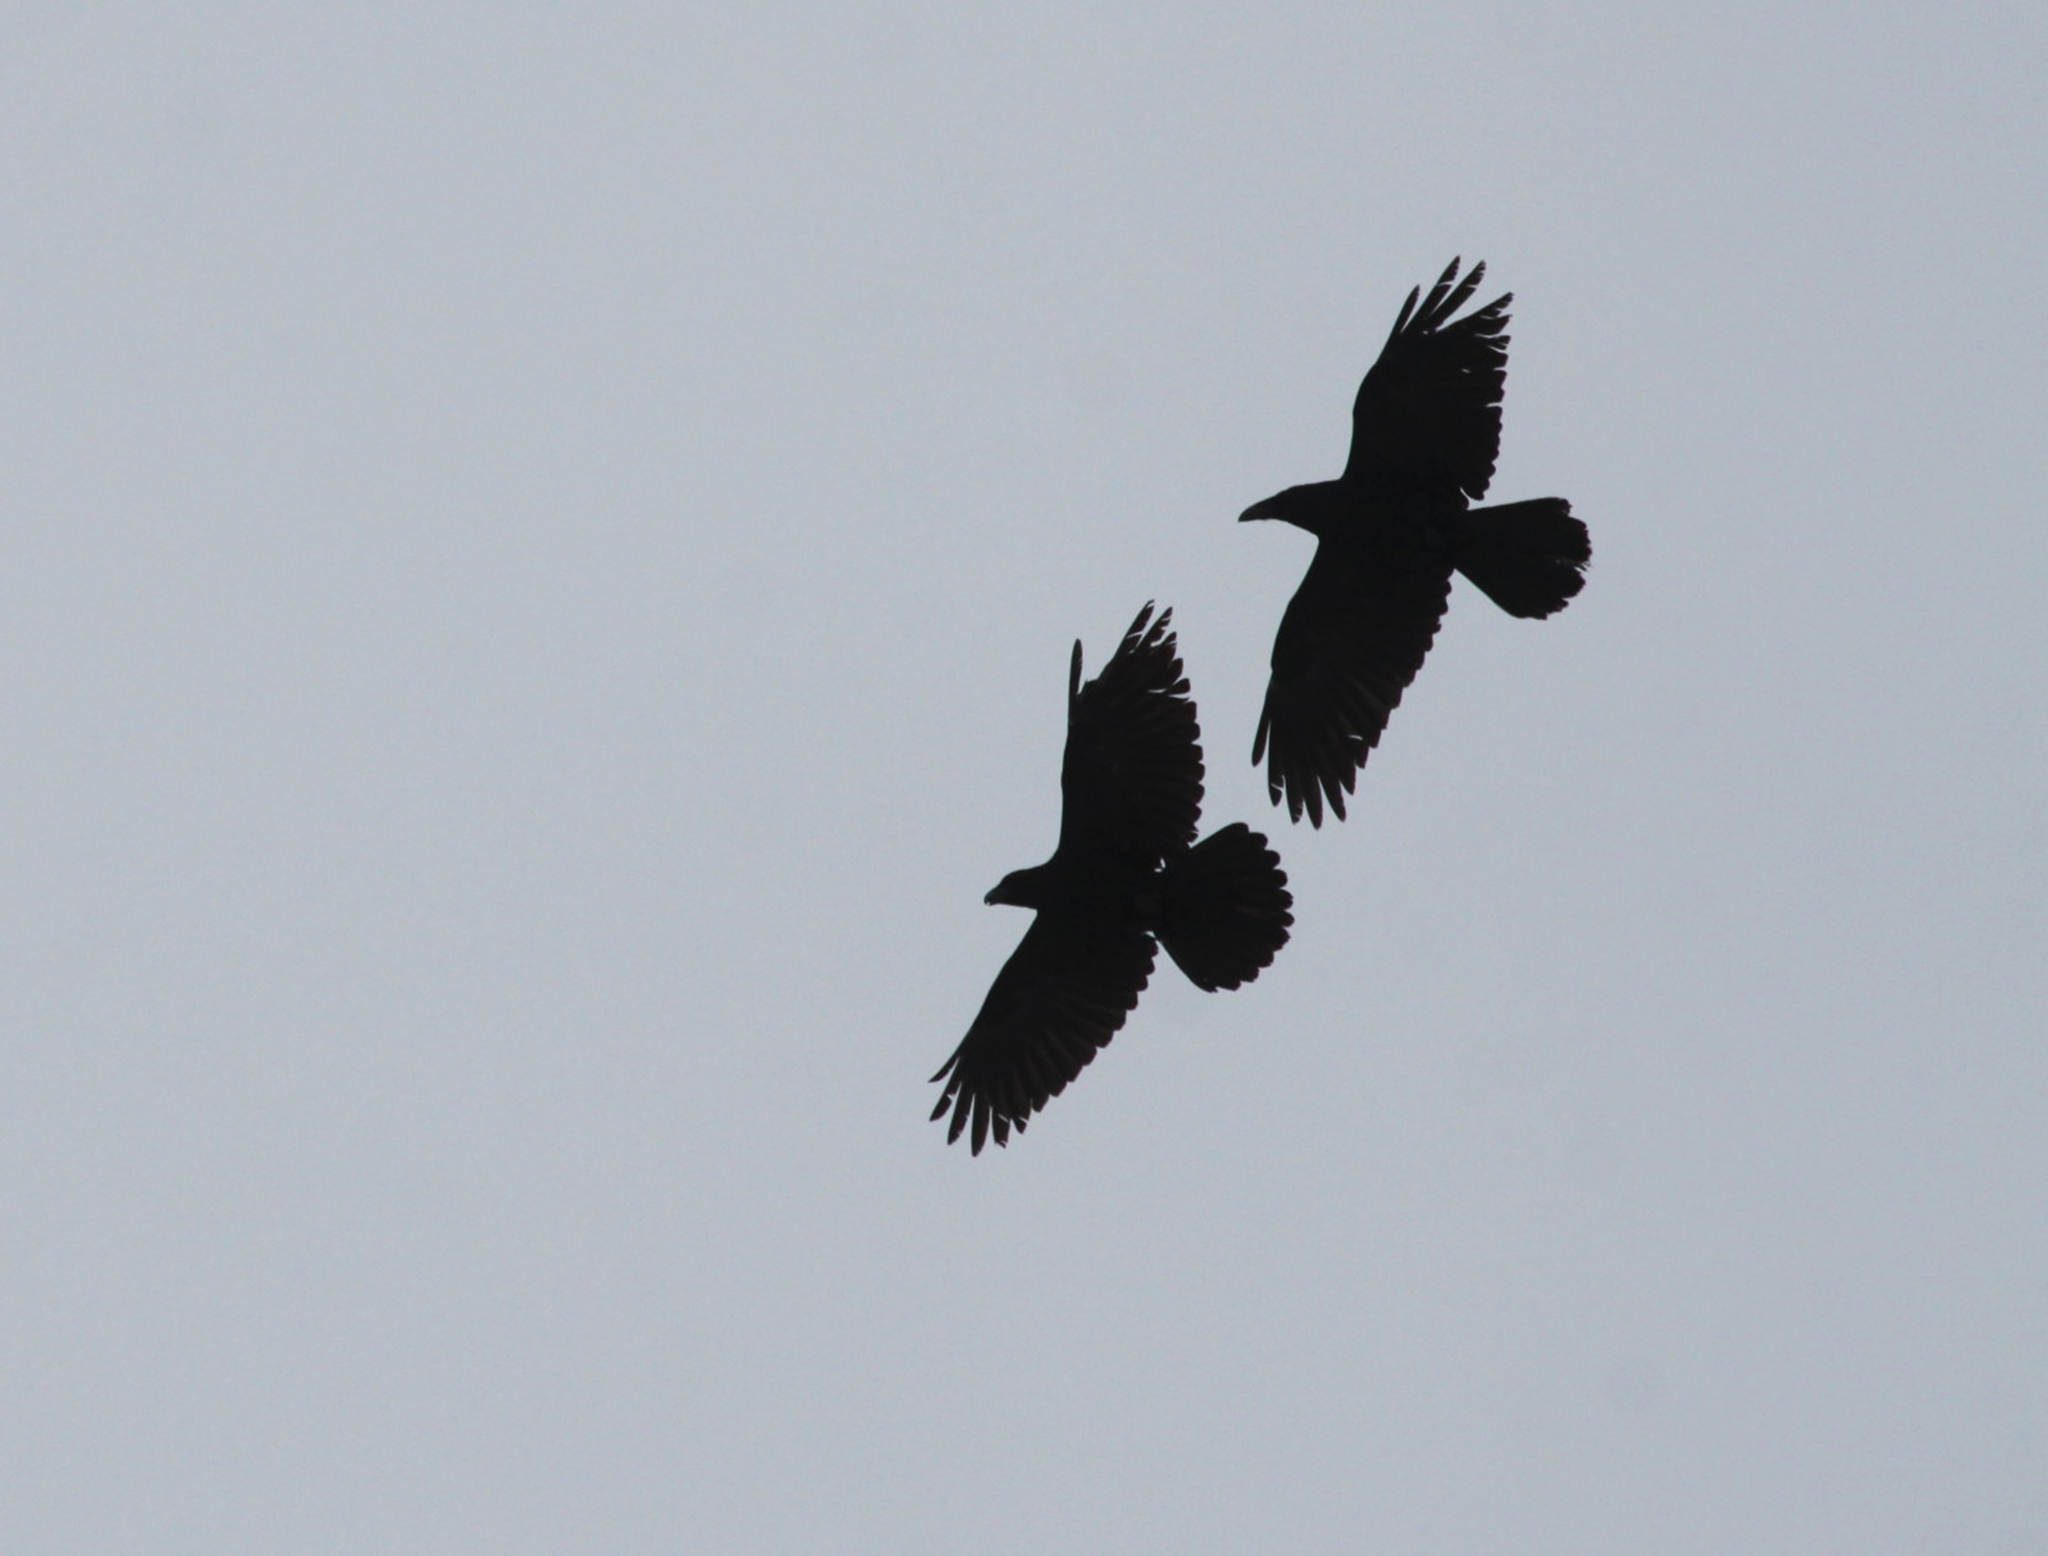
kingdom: Animalia
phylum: Chordata
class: Aves
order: Passeriformes
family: Corvidae
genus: Corvus
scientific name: Corvus corax
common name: Common raven
